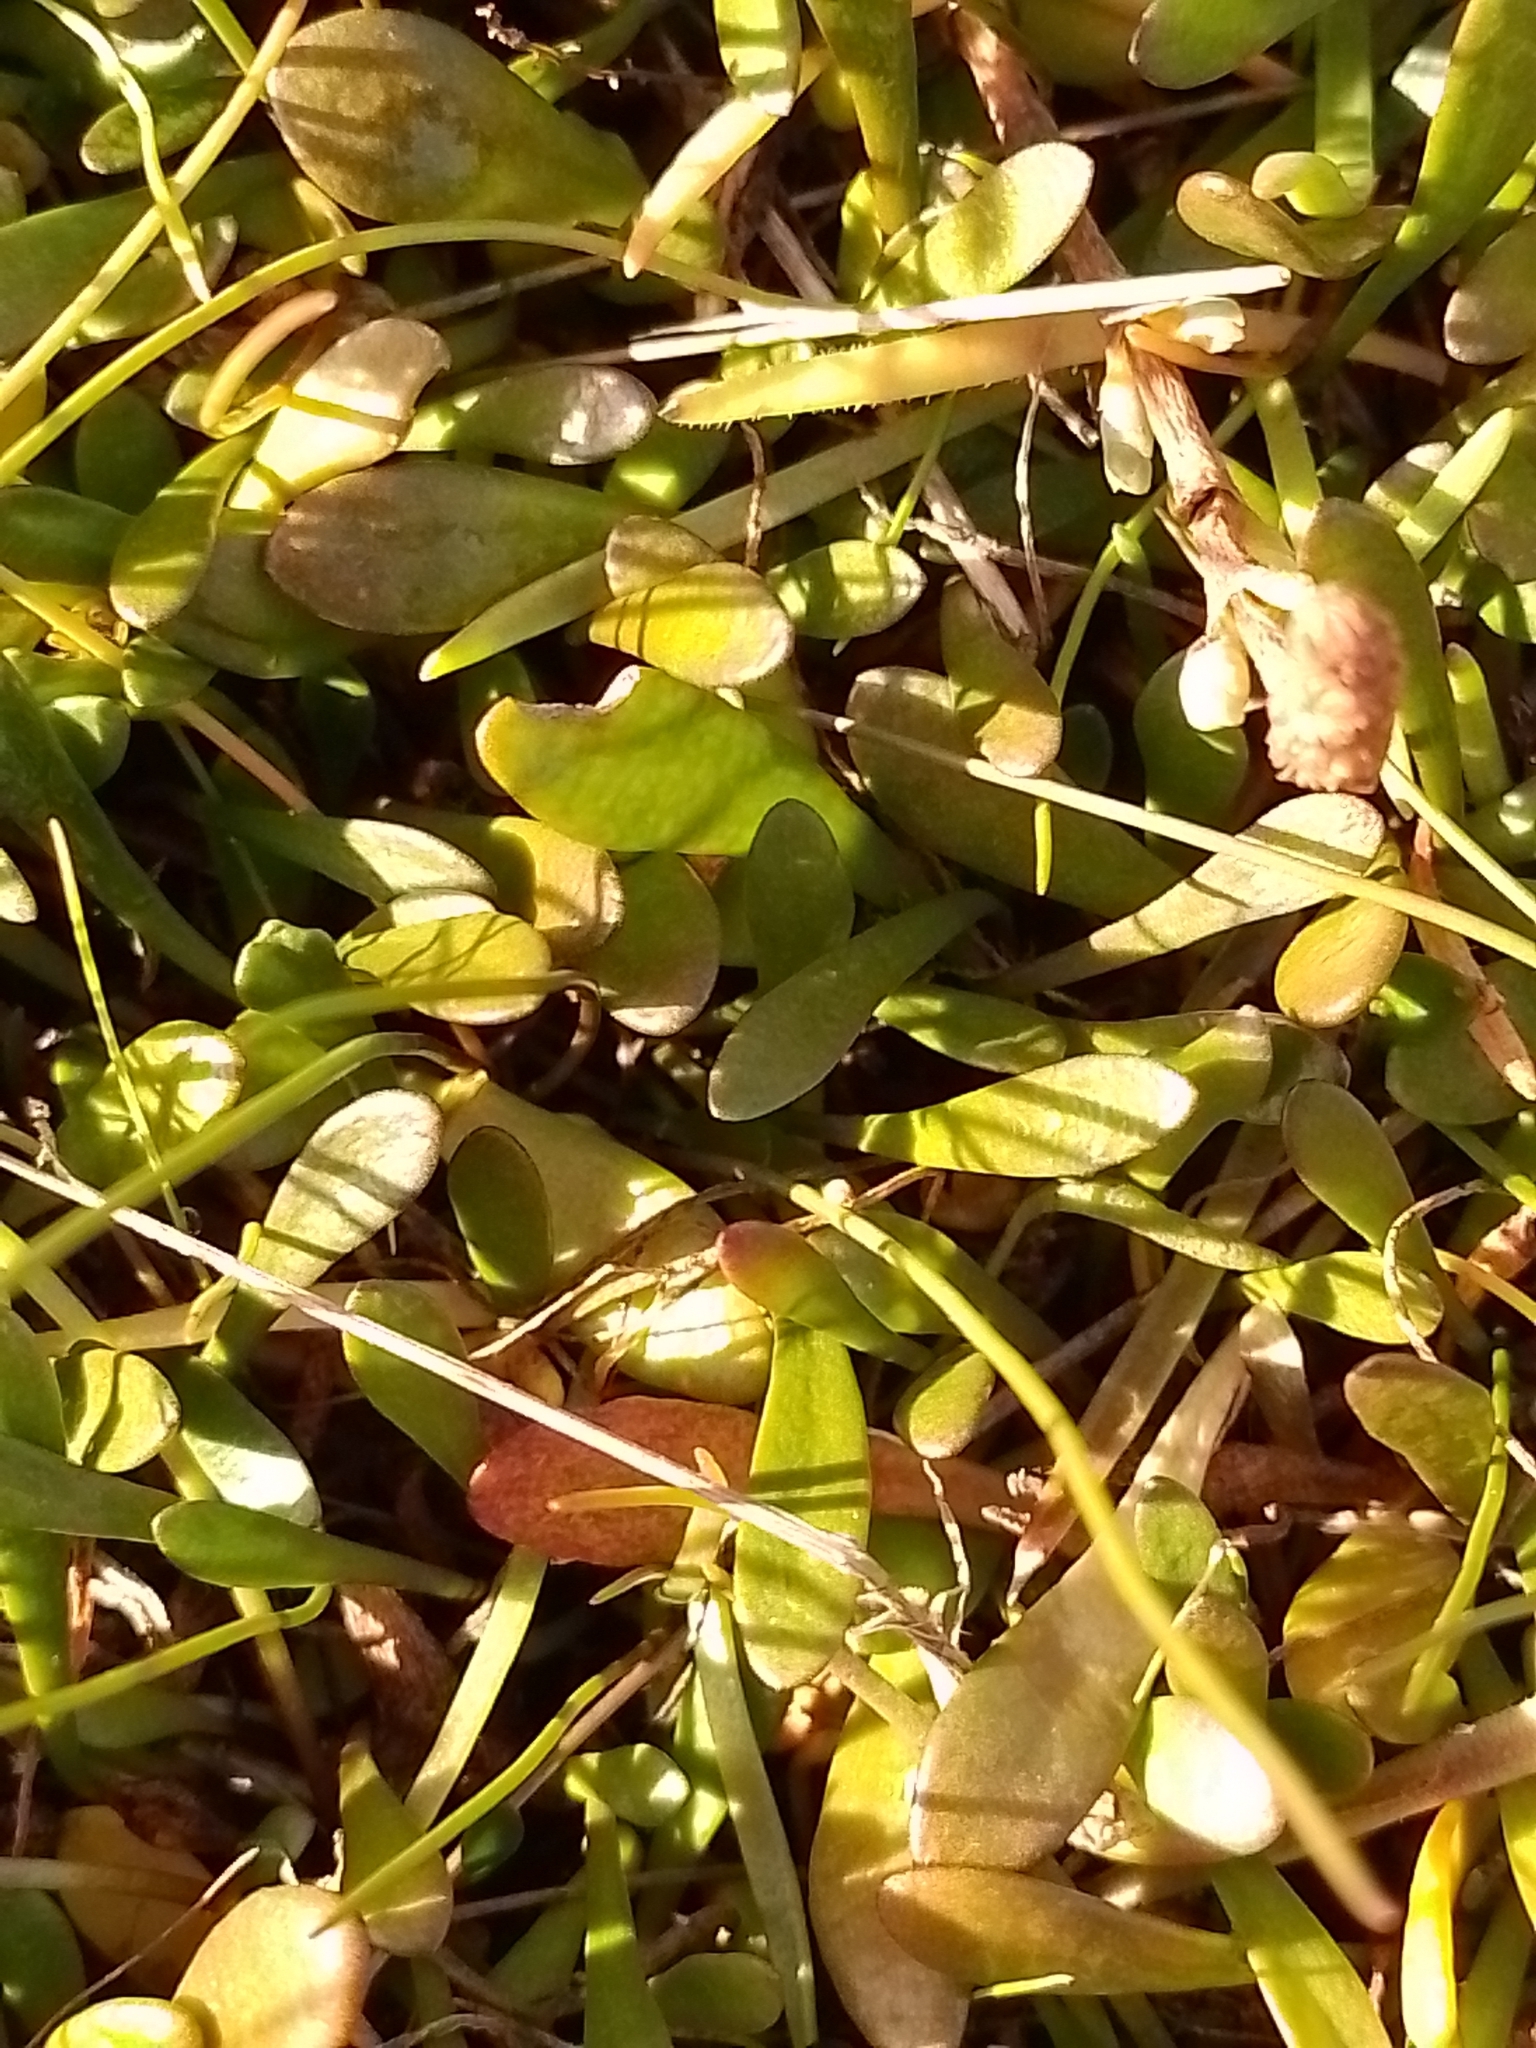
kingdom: Plantae
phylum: Tracheophyta
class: Magnoliopsida
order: Asterales
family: Goodeniaceae
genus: Goodenia
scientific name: Goodenia radicans
